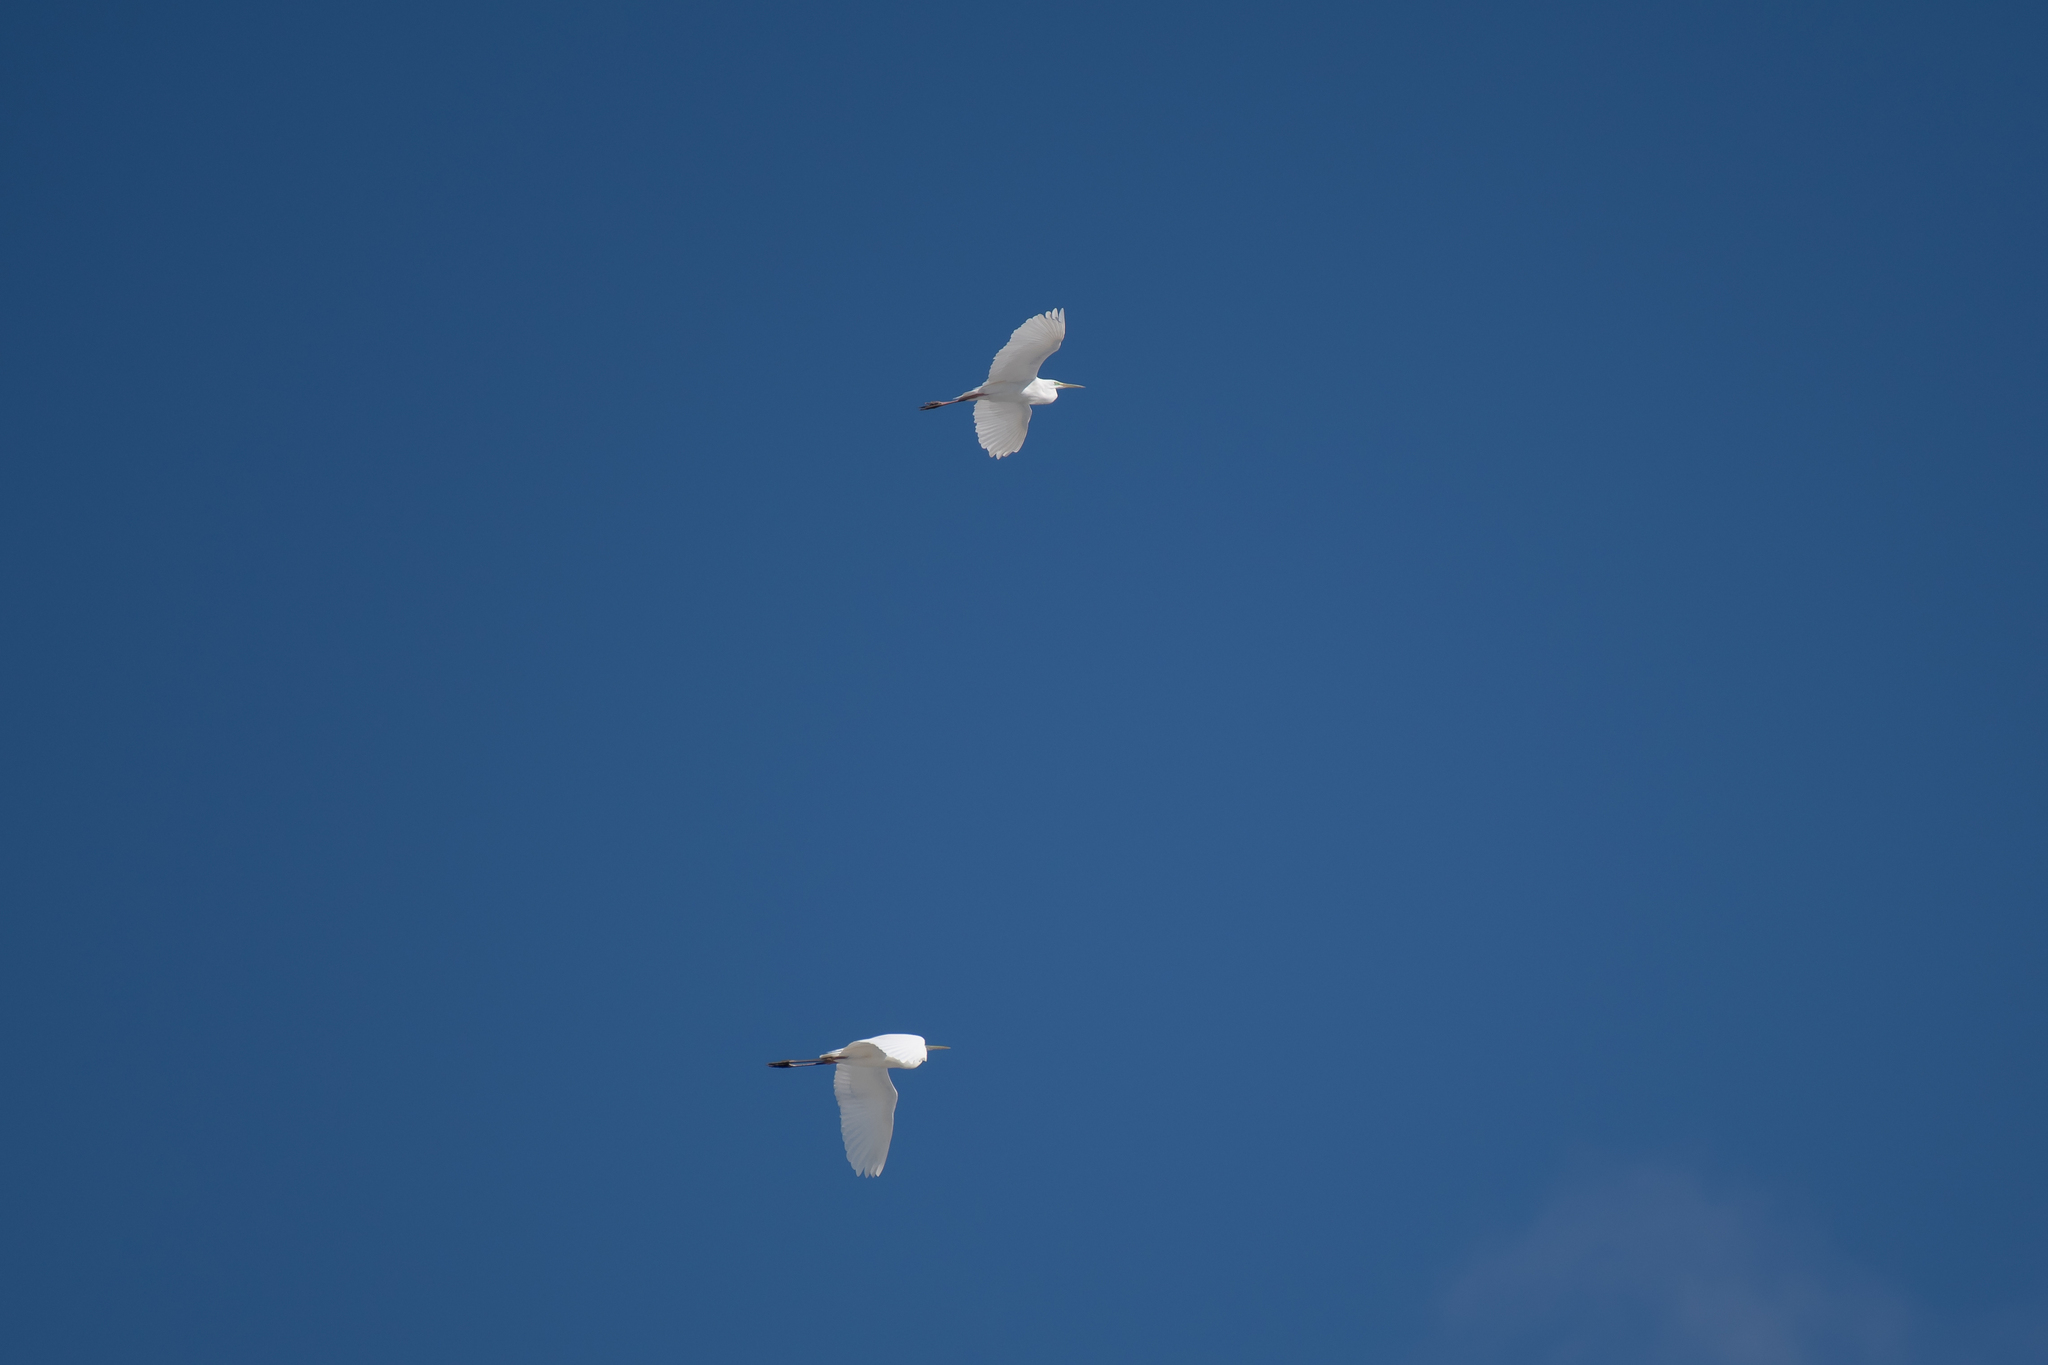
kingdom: Animalia
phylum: Chordata
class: Aves
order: Pelecaniformes
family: Ardeidae
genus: Ardea
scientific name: Ardea alba
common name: Great egret
